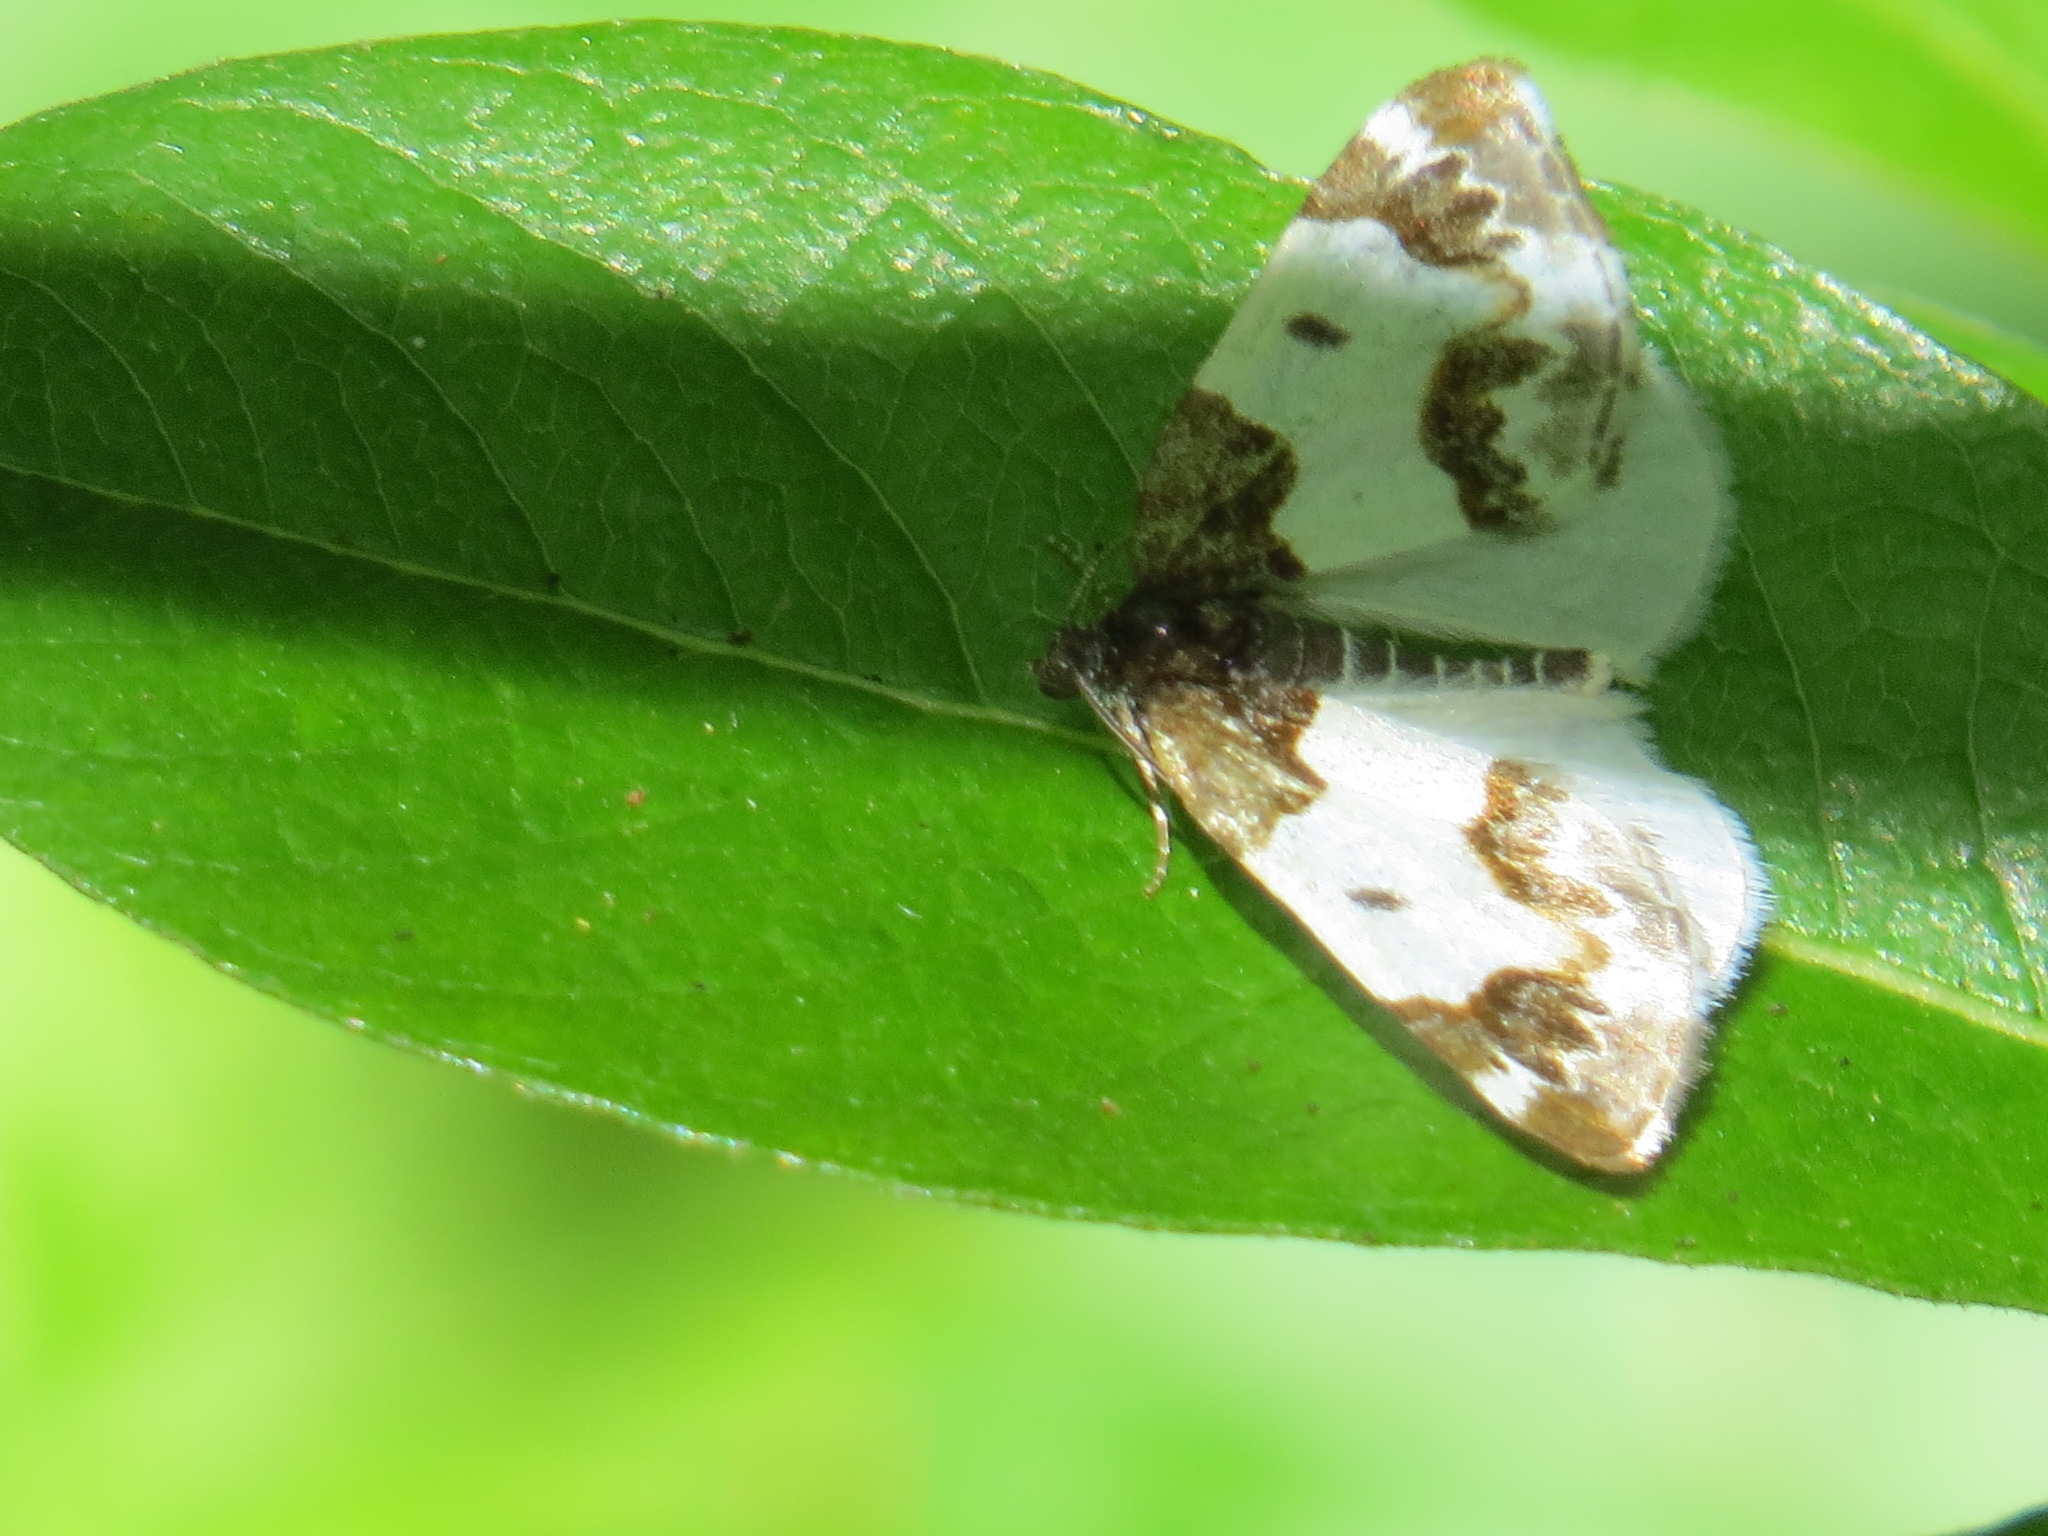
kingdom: Animalia
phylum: Arthropoda
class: Insecta
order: Lepidoptera
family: Geometridae
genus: Mesoleuca
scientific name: Mesoleuca gratulata
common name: Half-white carpet moth
